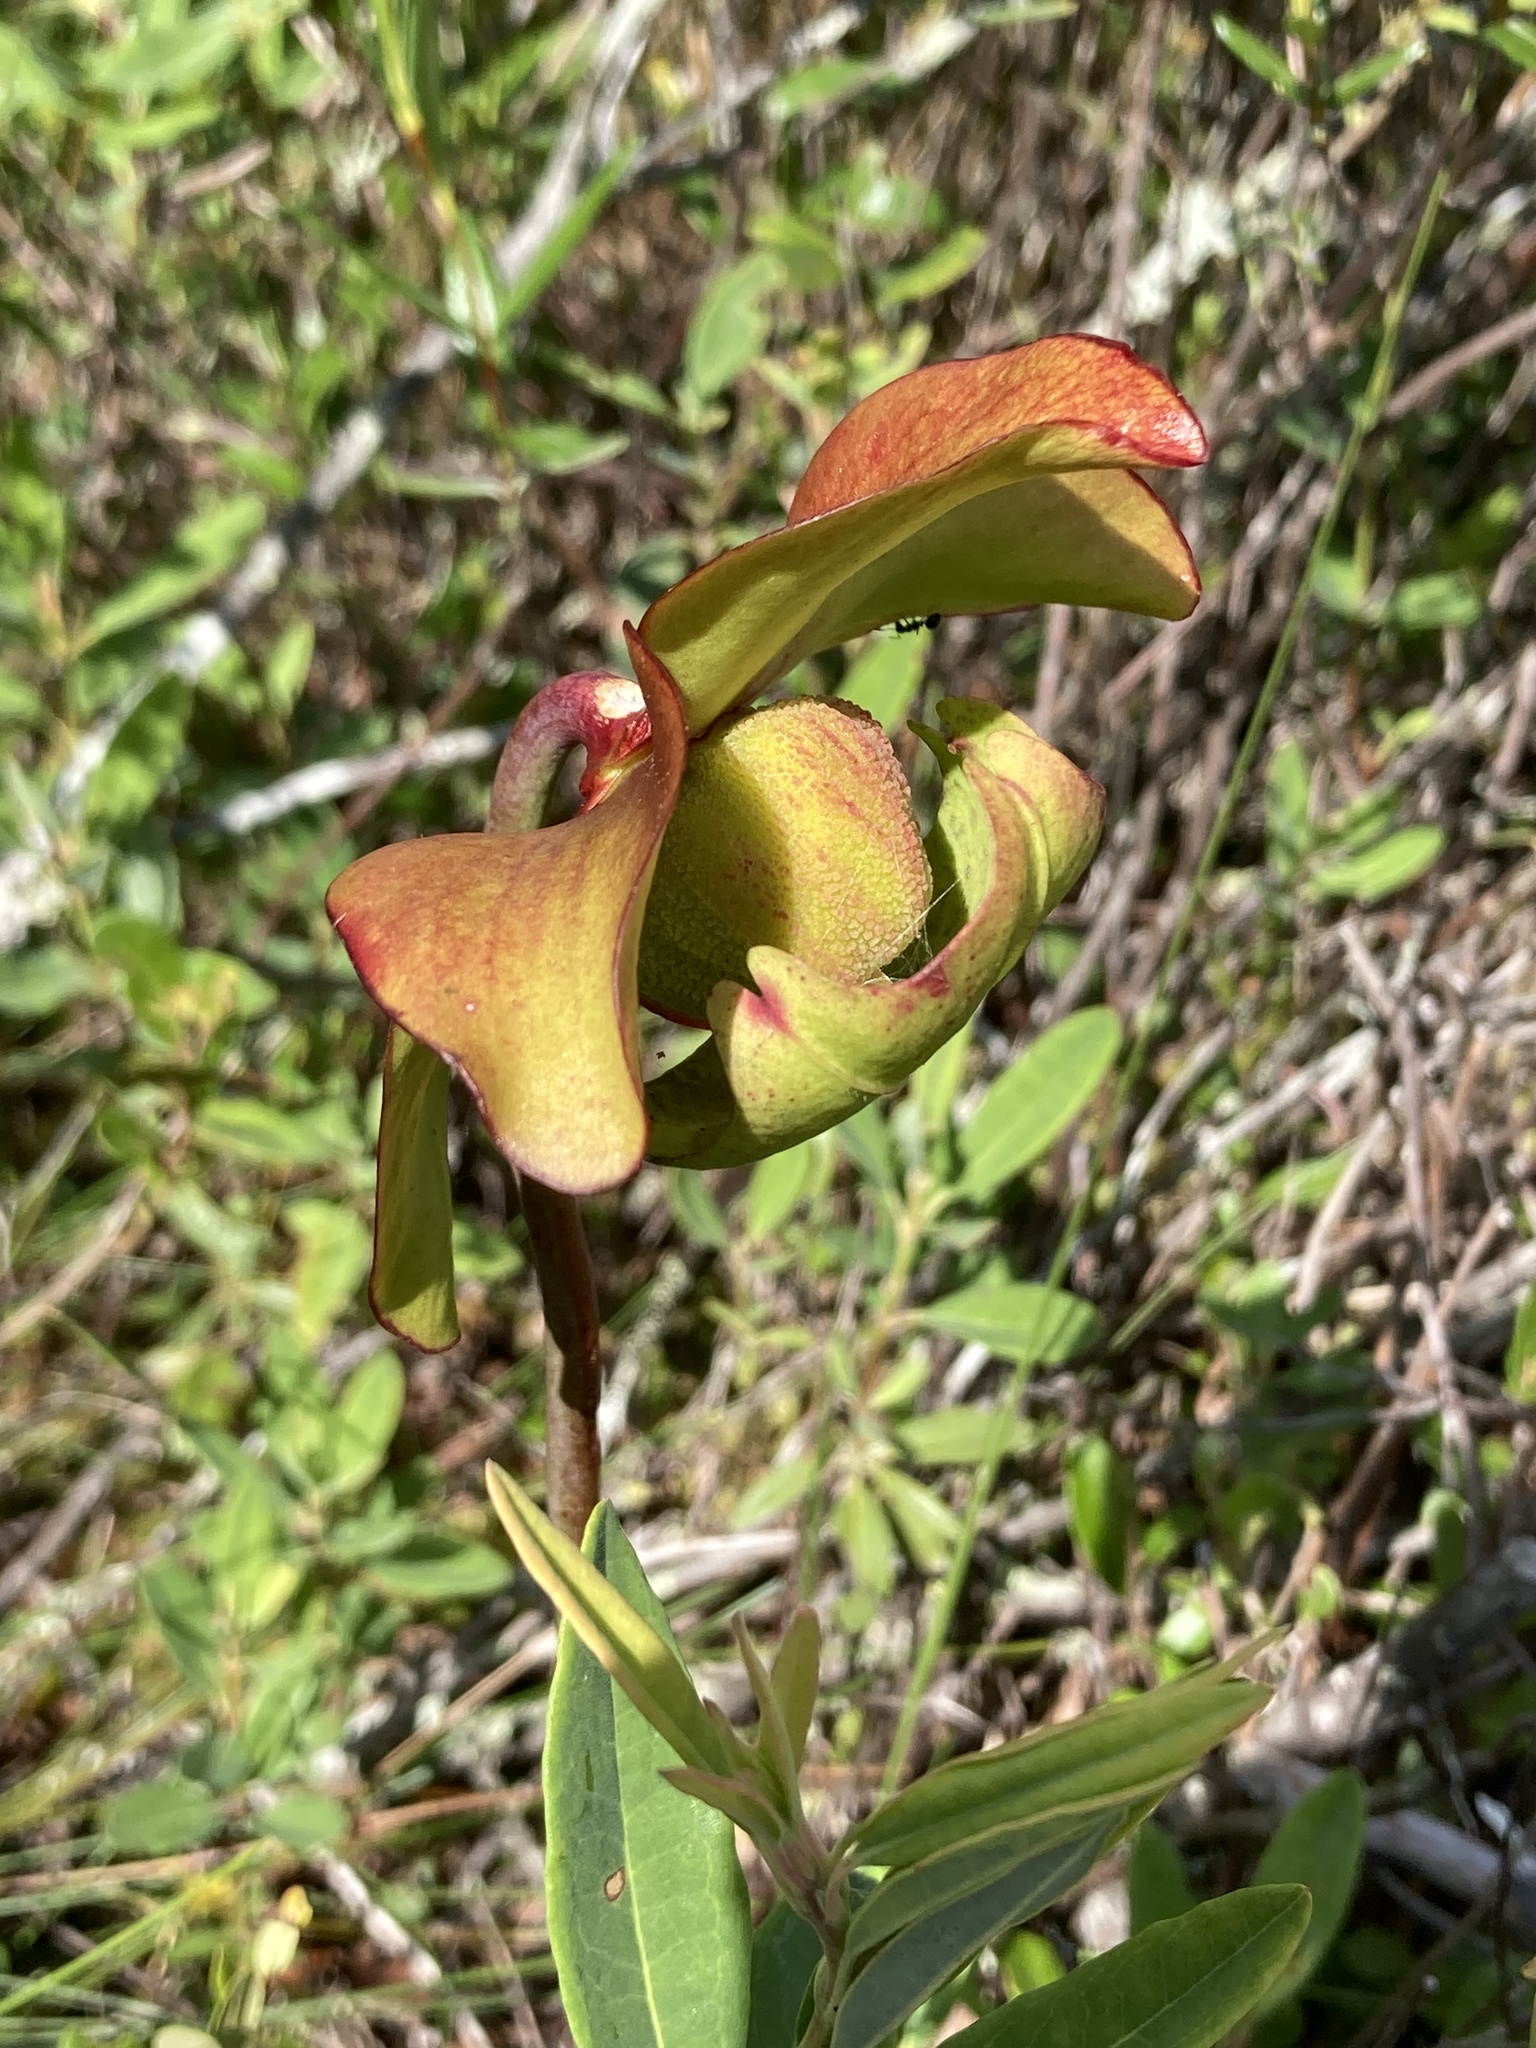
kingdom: Plantae
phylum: Tracheophyta
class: Magnoliopsida
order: Ericales
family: Sarraceniaceae
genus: Sarracenia
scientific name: Sarracenia purpurea
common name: Pitcherplant
